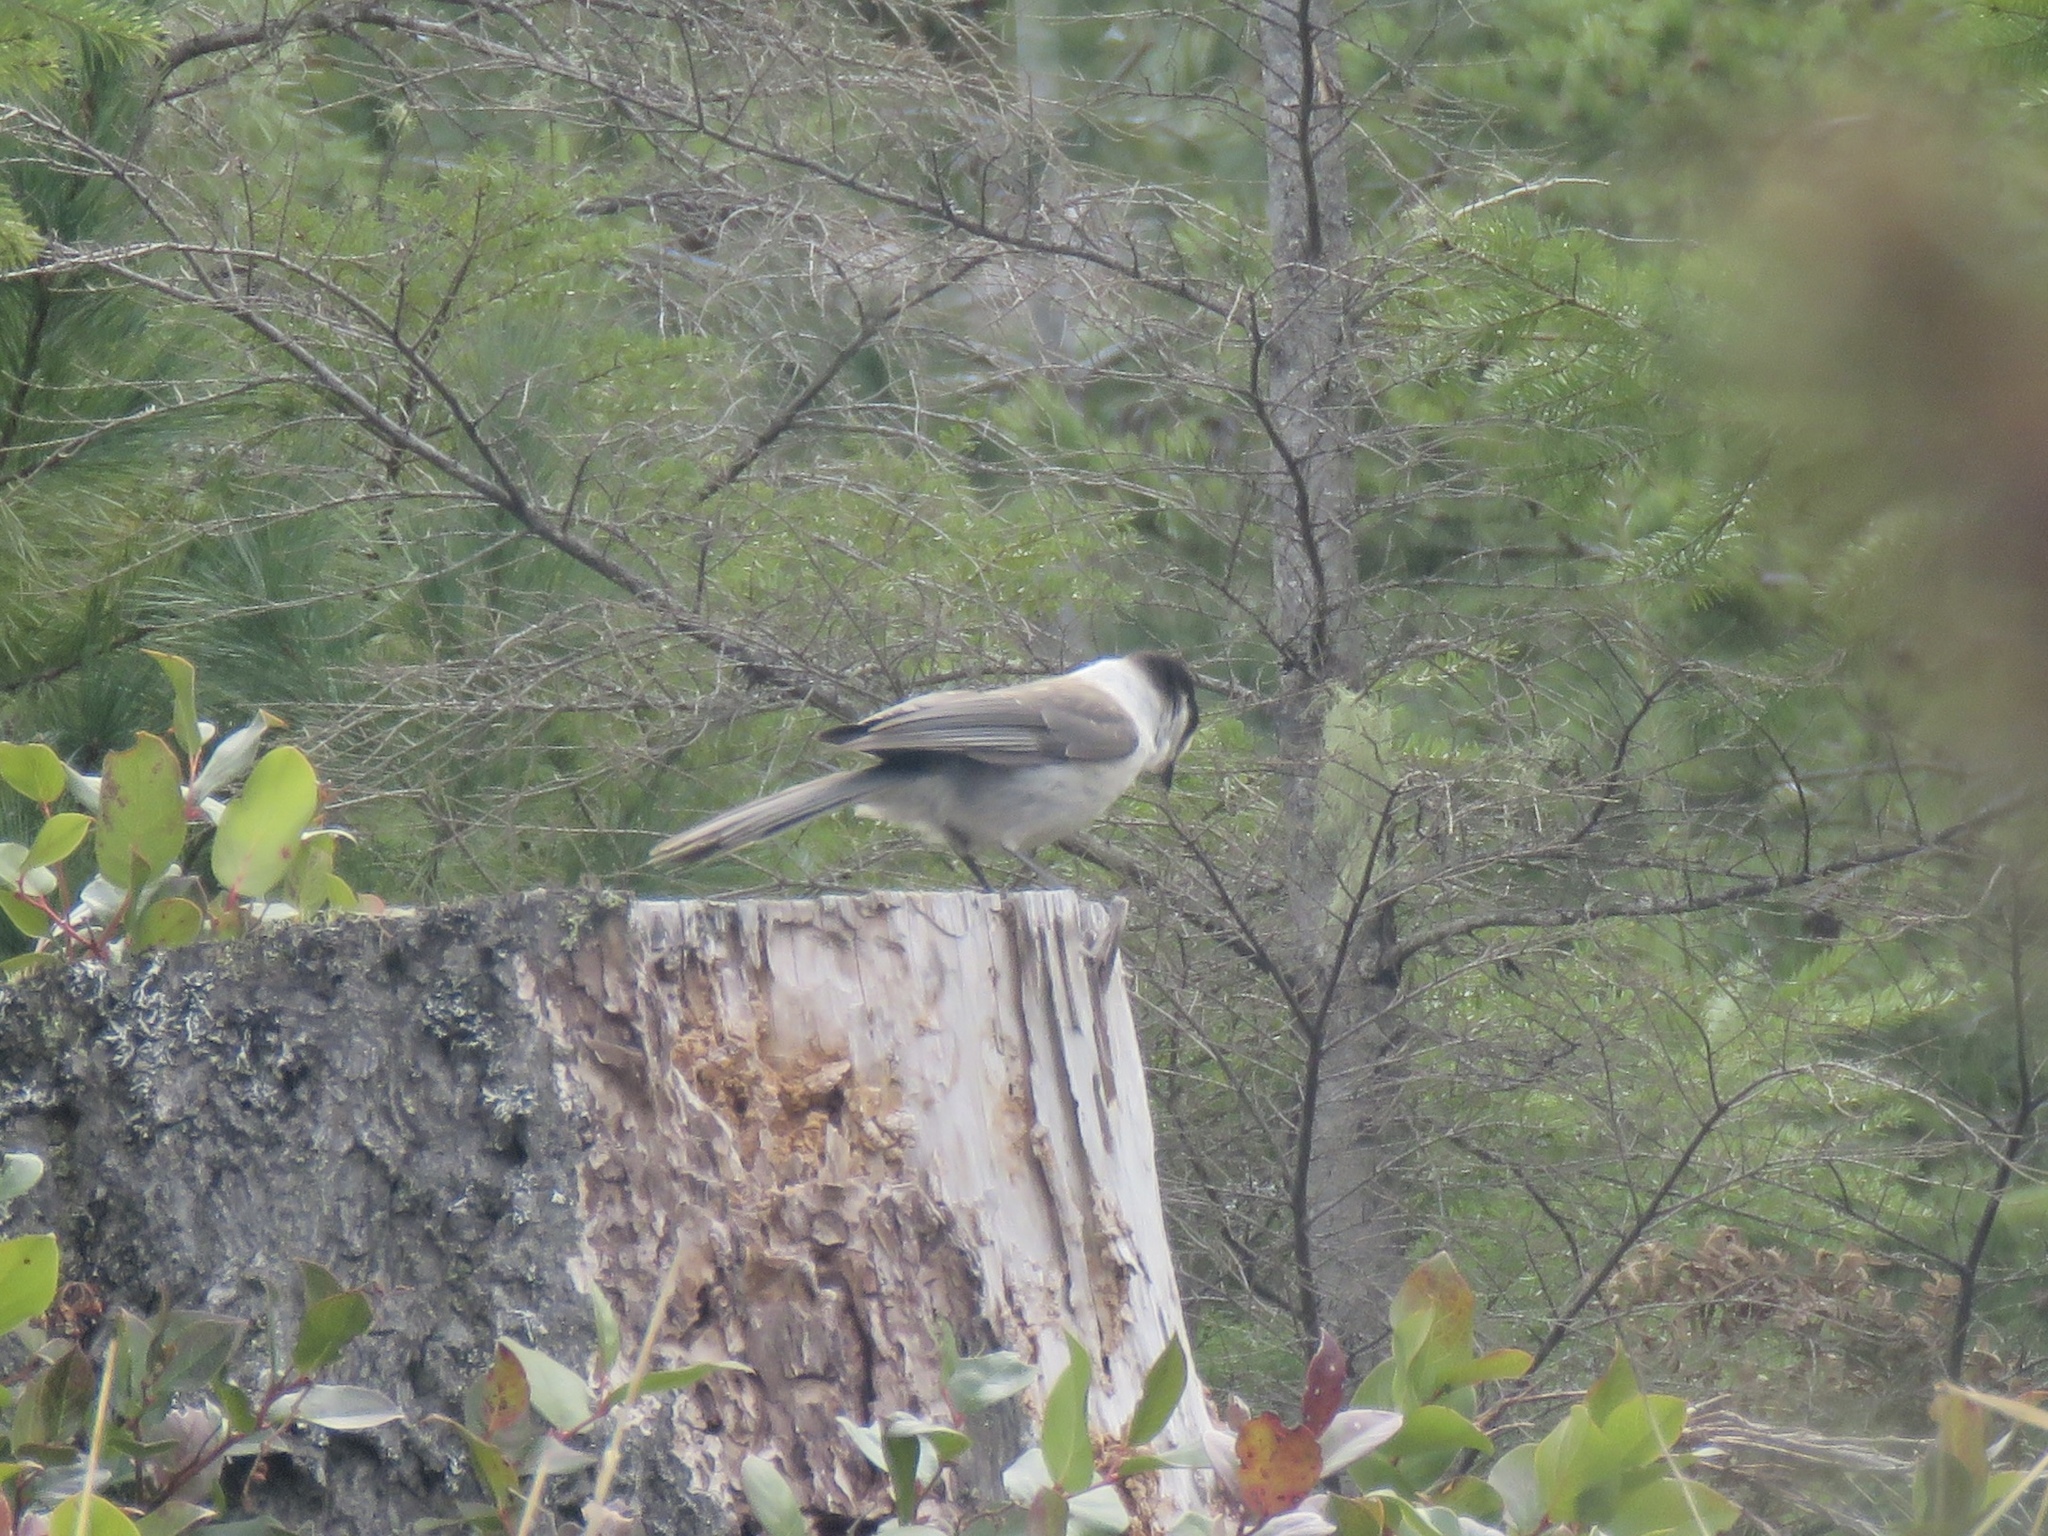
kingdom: Animalia
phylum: Chordata
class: Aves
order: Passeriformes
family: Corvidae
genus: Perisoreus
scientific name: Perisoreus canadensis
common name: Gray jay
